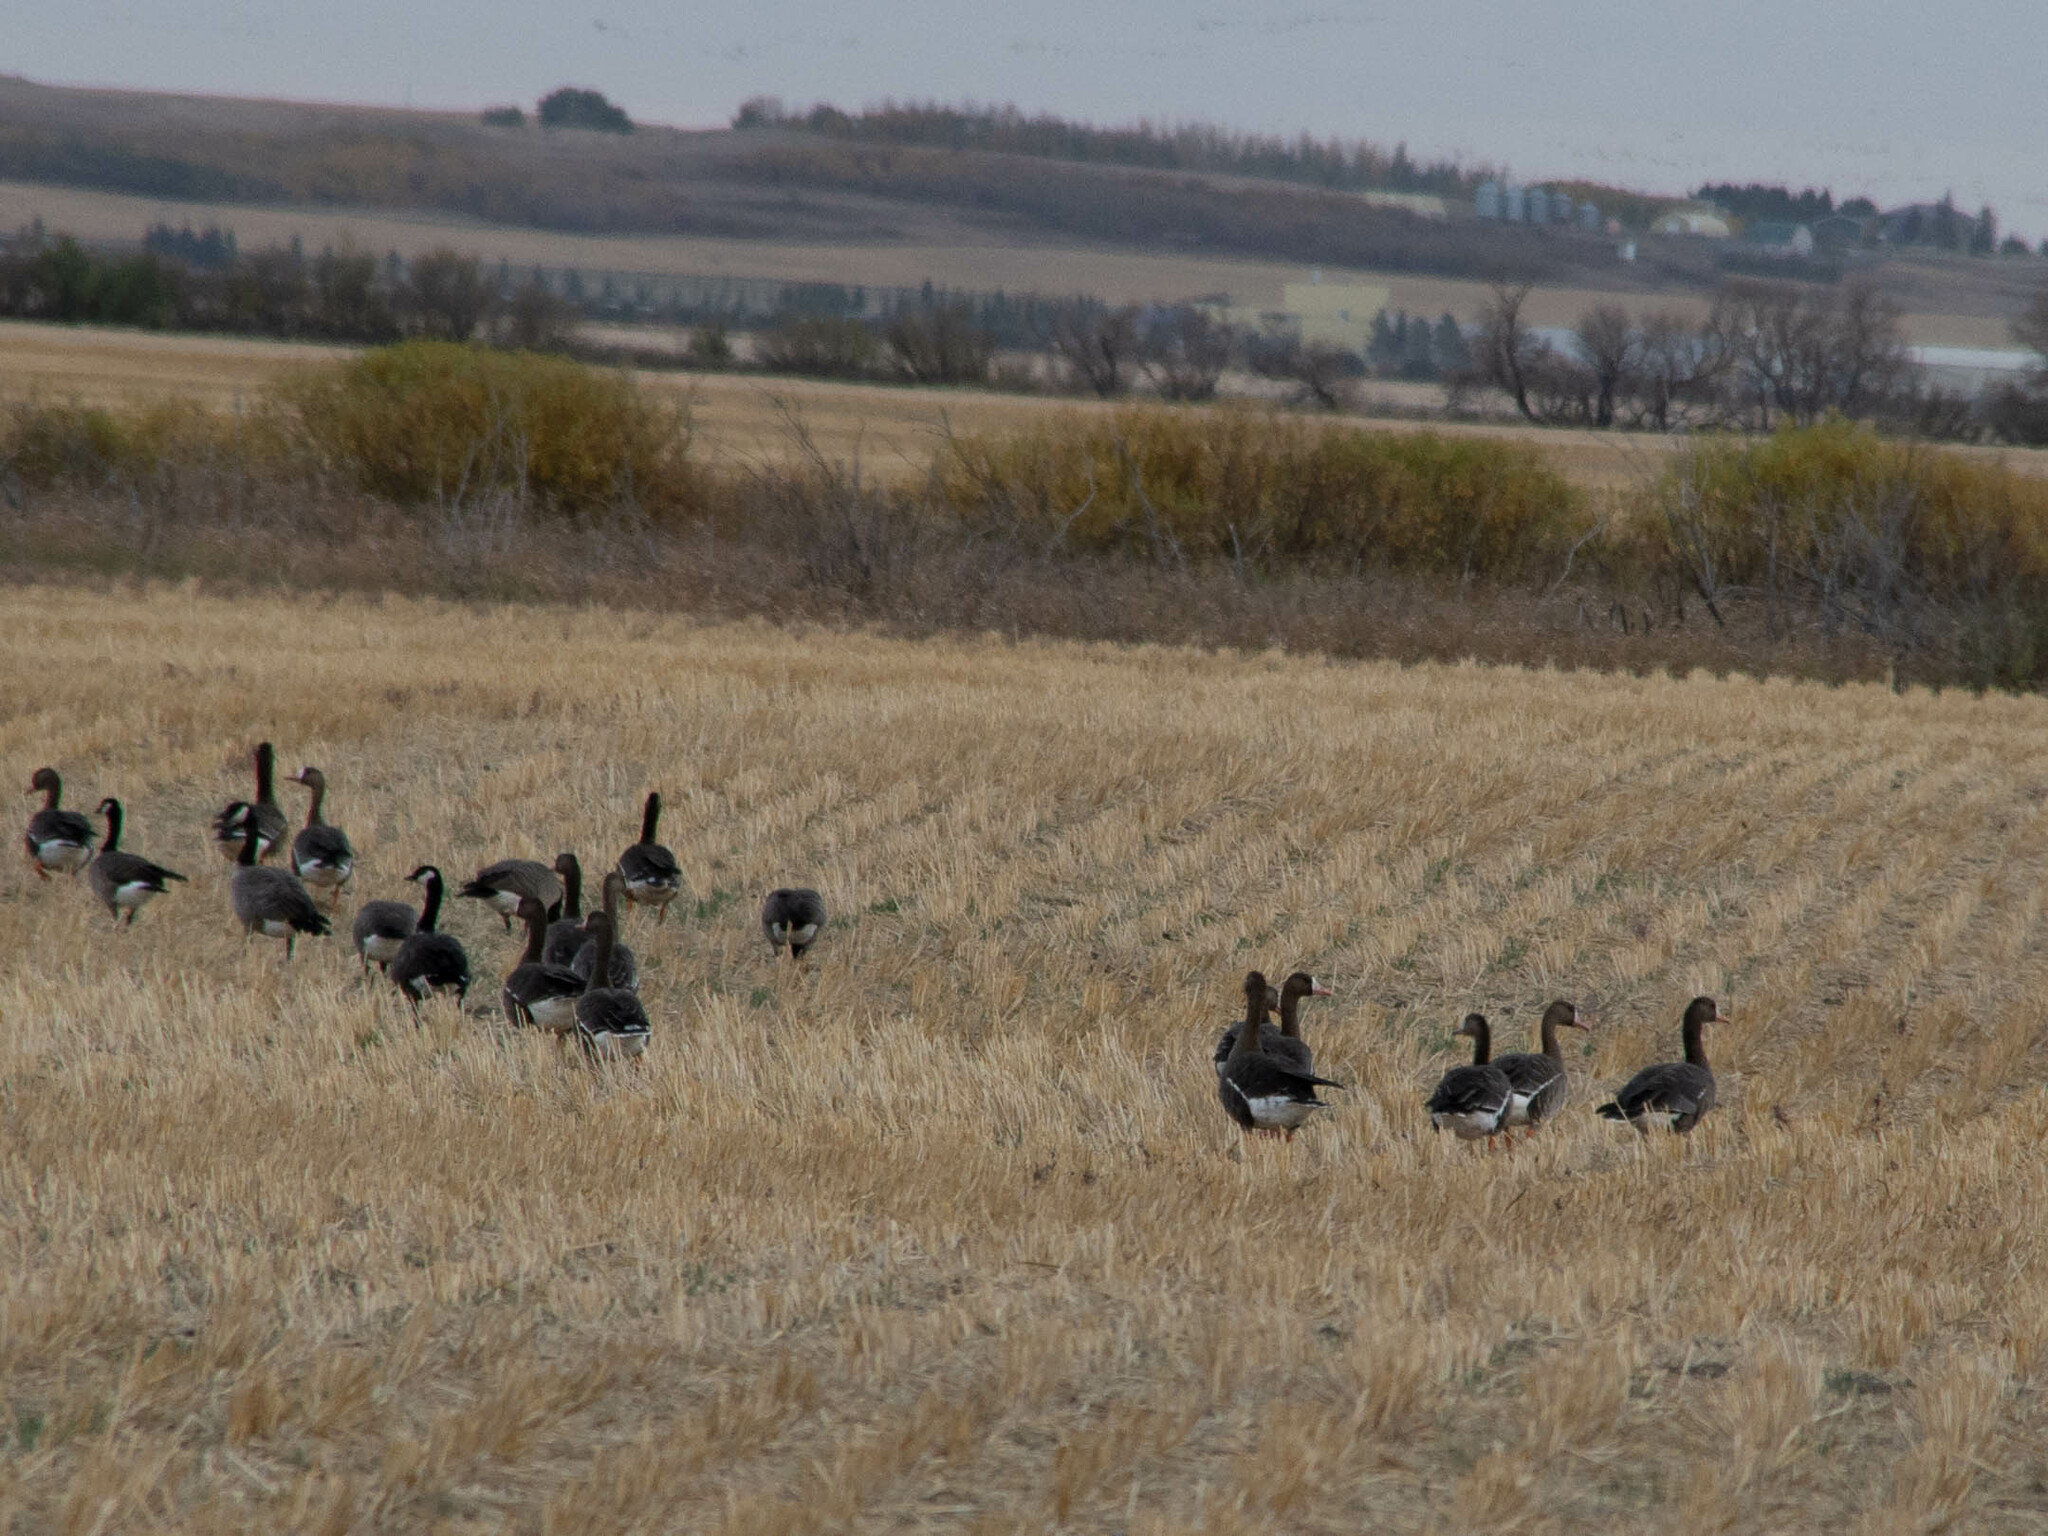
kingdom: Animalia
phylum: Chordata
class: Aves
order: Anseriformes
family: Anatidae
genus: Anser
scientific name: Anser albifrons
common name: Greater white-fronted goose
